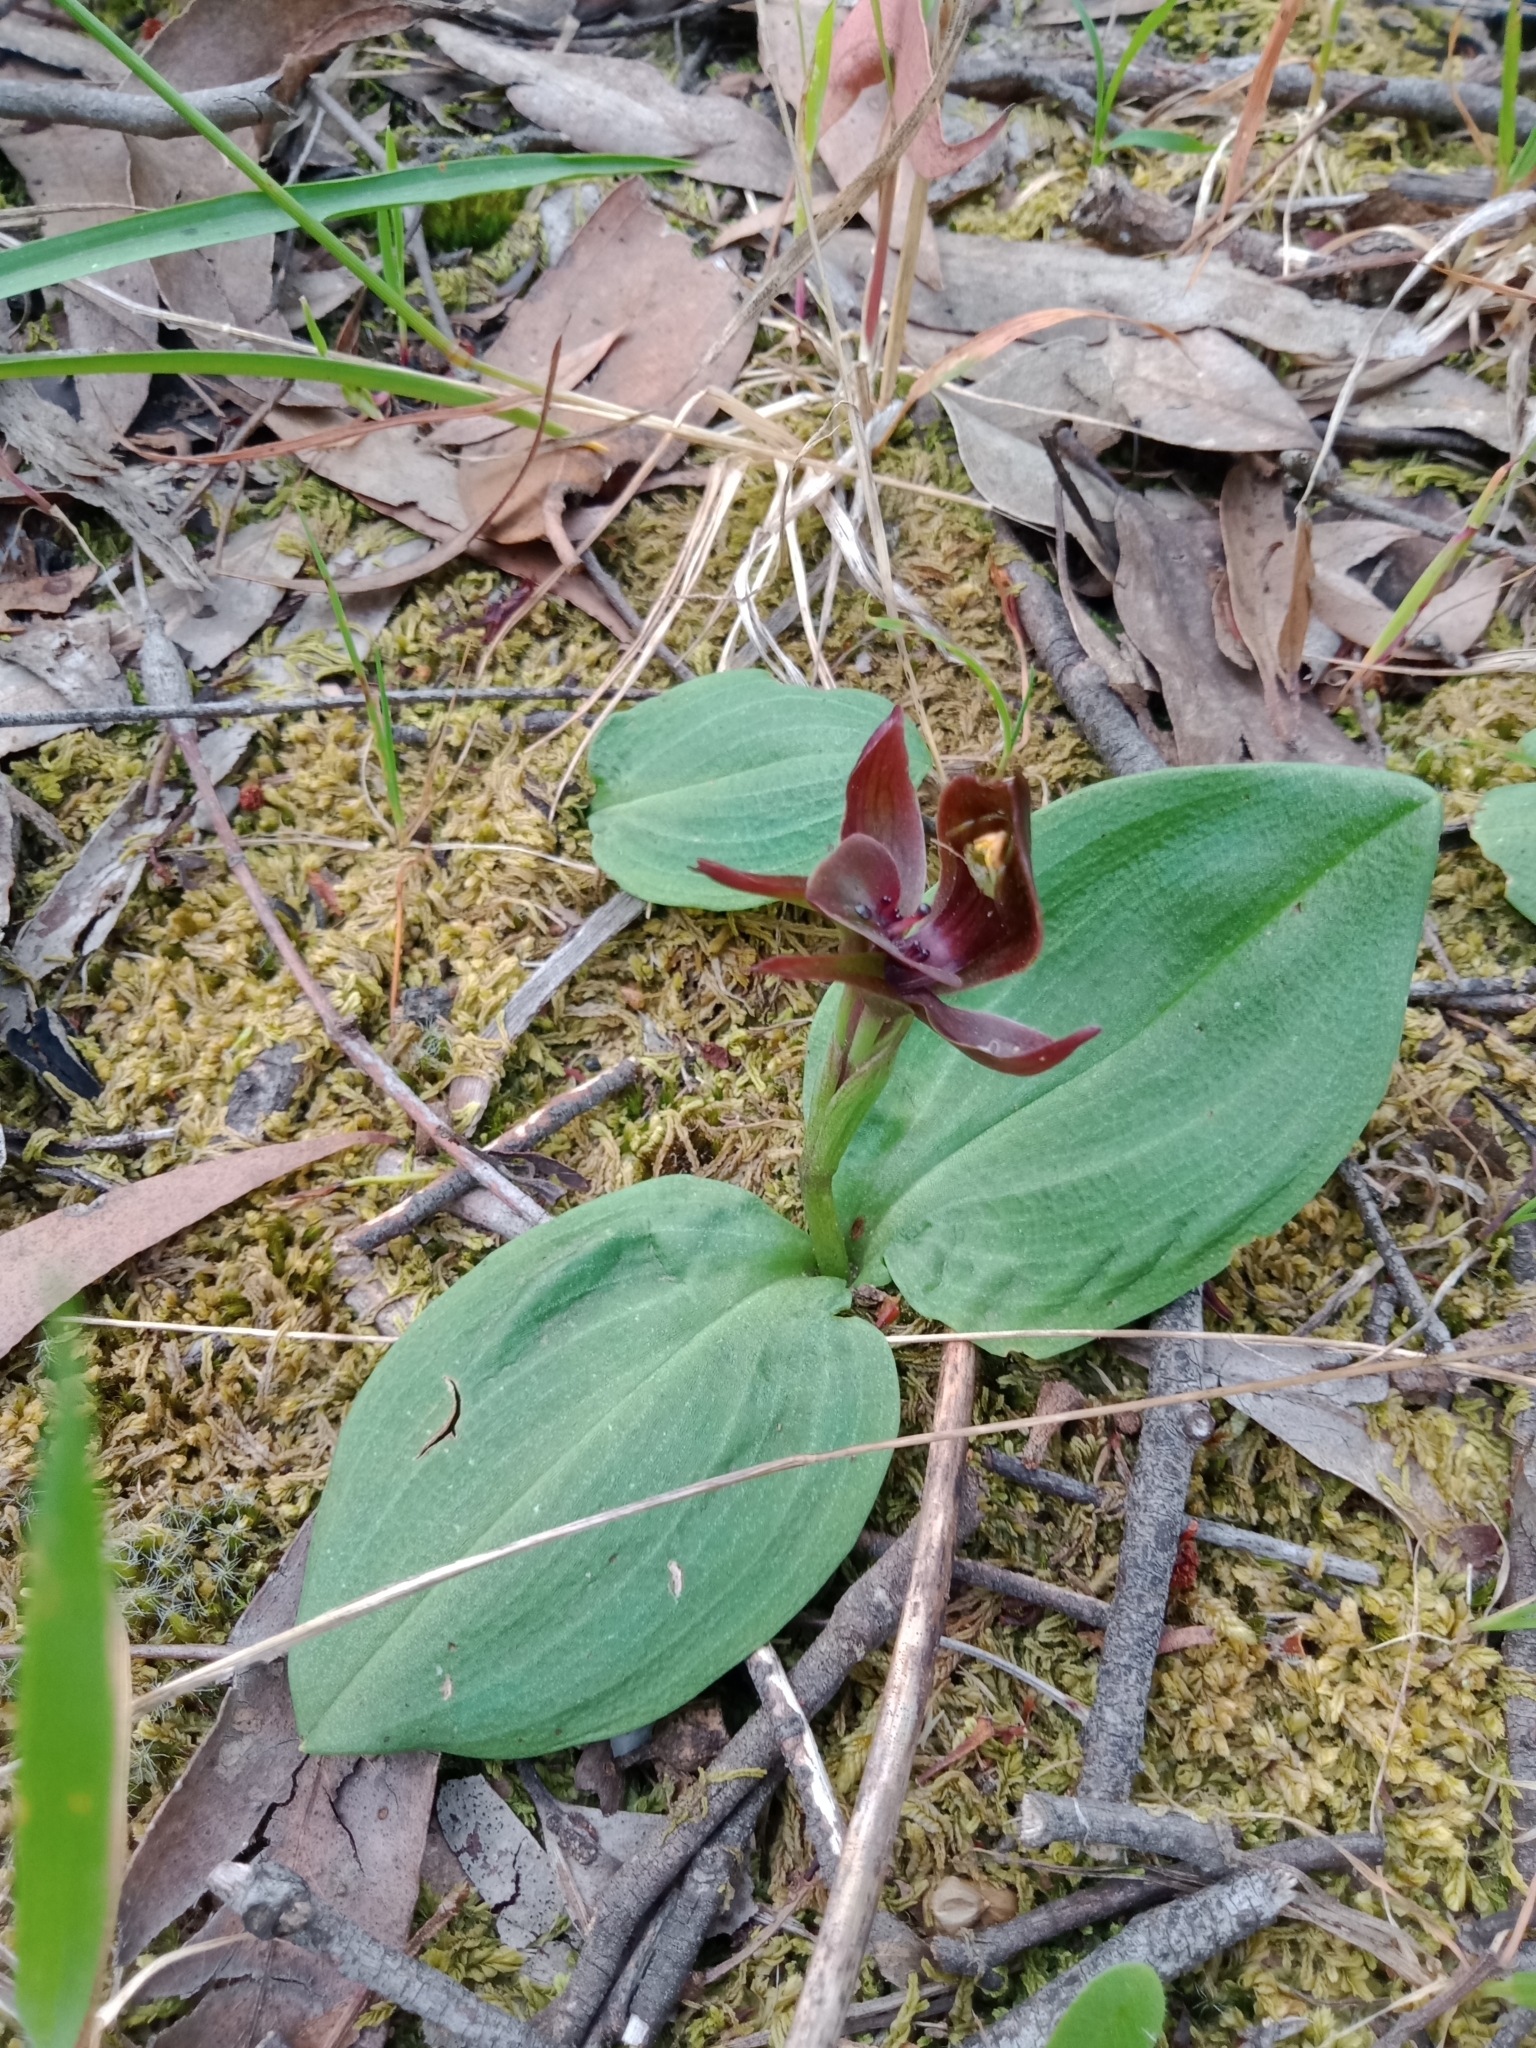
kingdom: Plantae
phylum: Tracheophyta
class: Liliopsida
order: Asparagales
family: Orchidaceae
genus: Chiloglottis
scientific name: Chiloglottis valida
